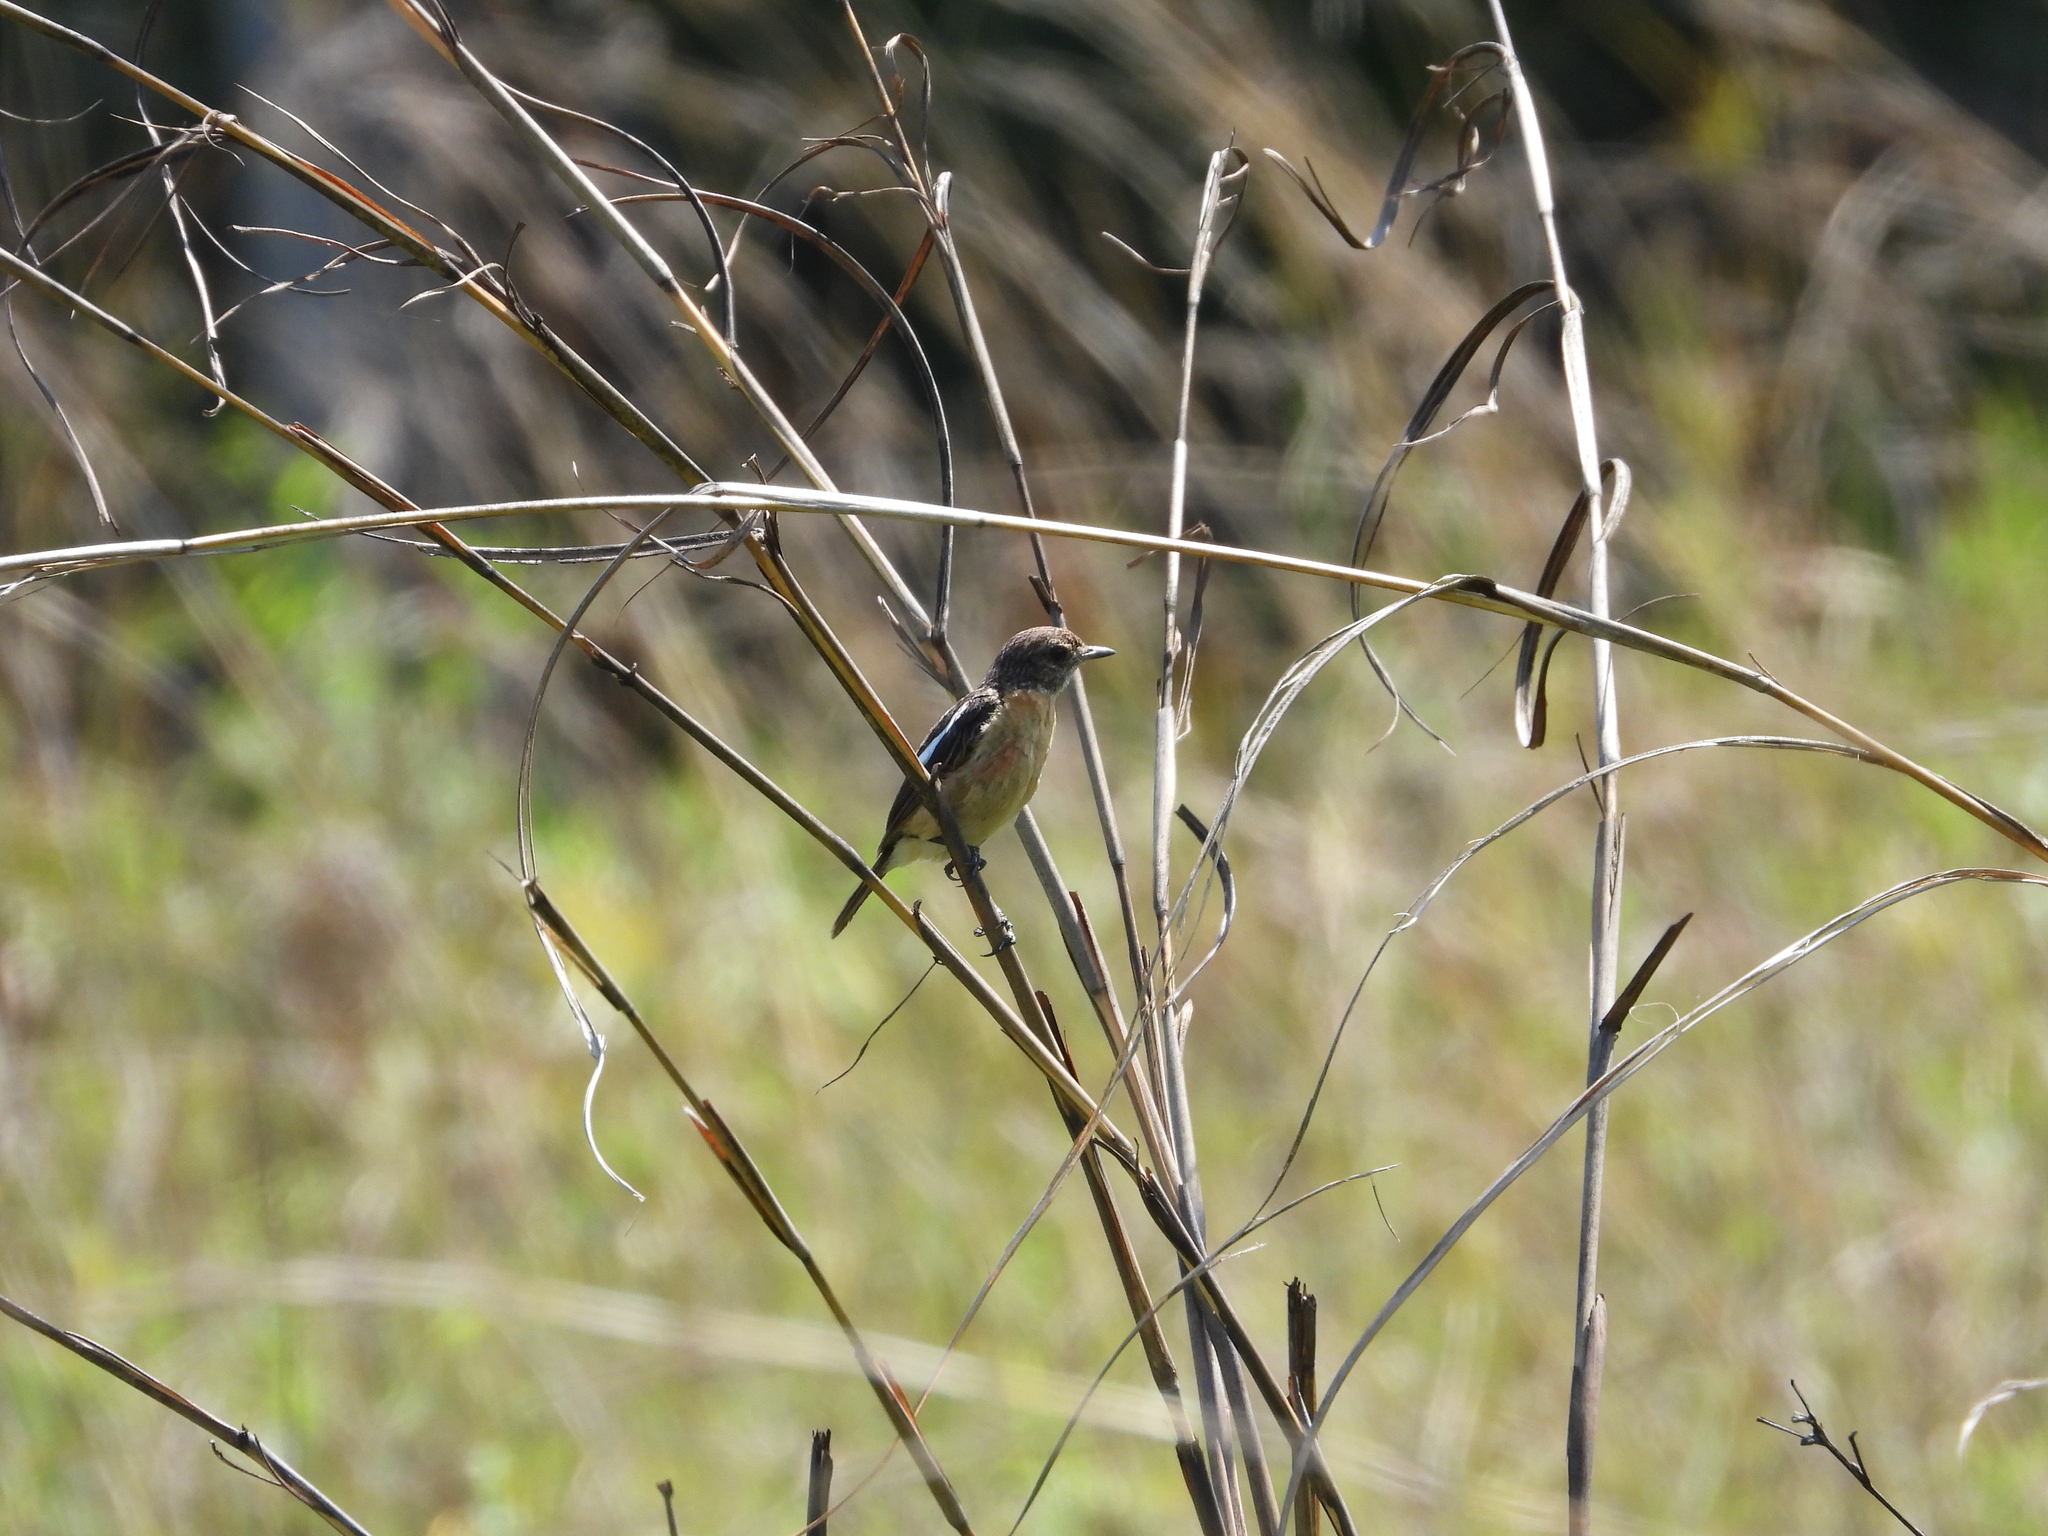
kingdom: Animalia
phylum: Chordata
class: Aves
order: Passeriformes
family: Muscicapidae
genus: Saxicola
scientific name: Saxicola torquatus
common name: African stonechat
